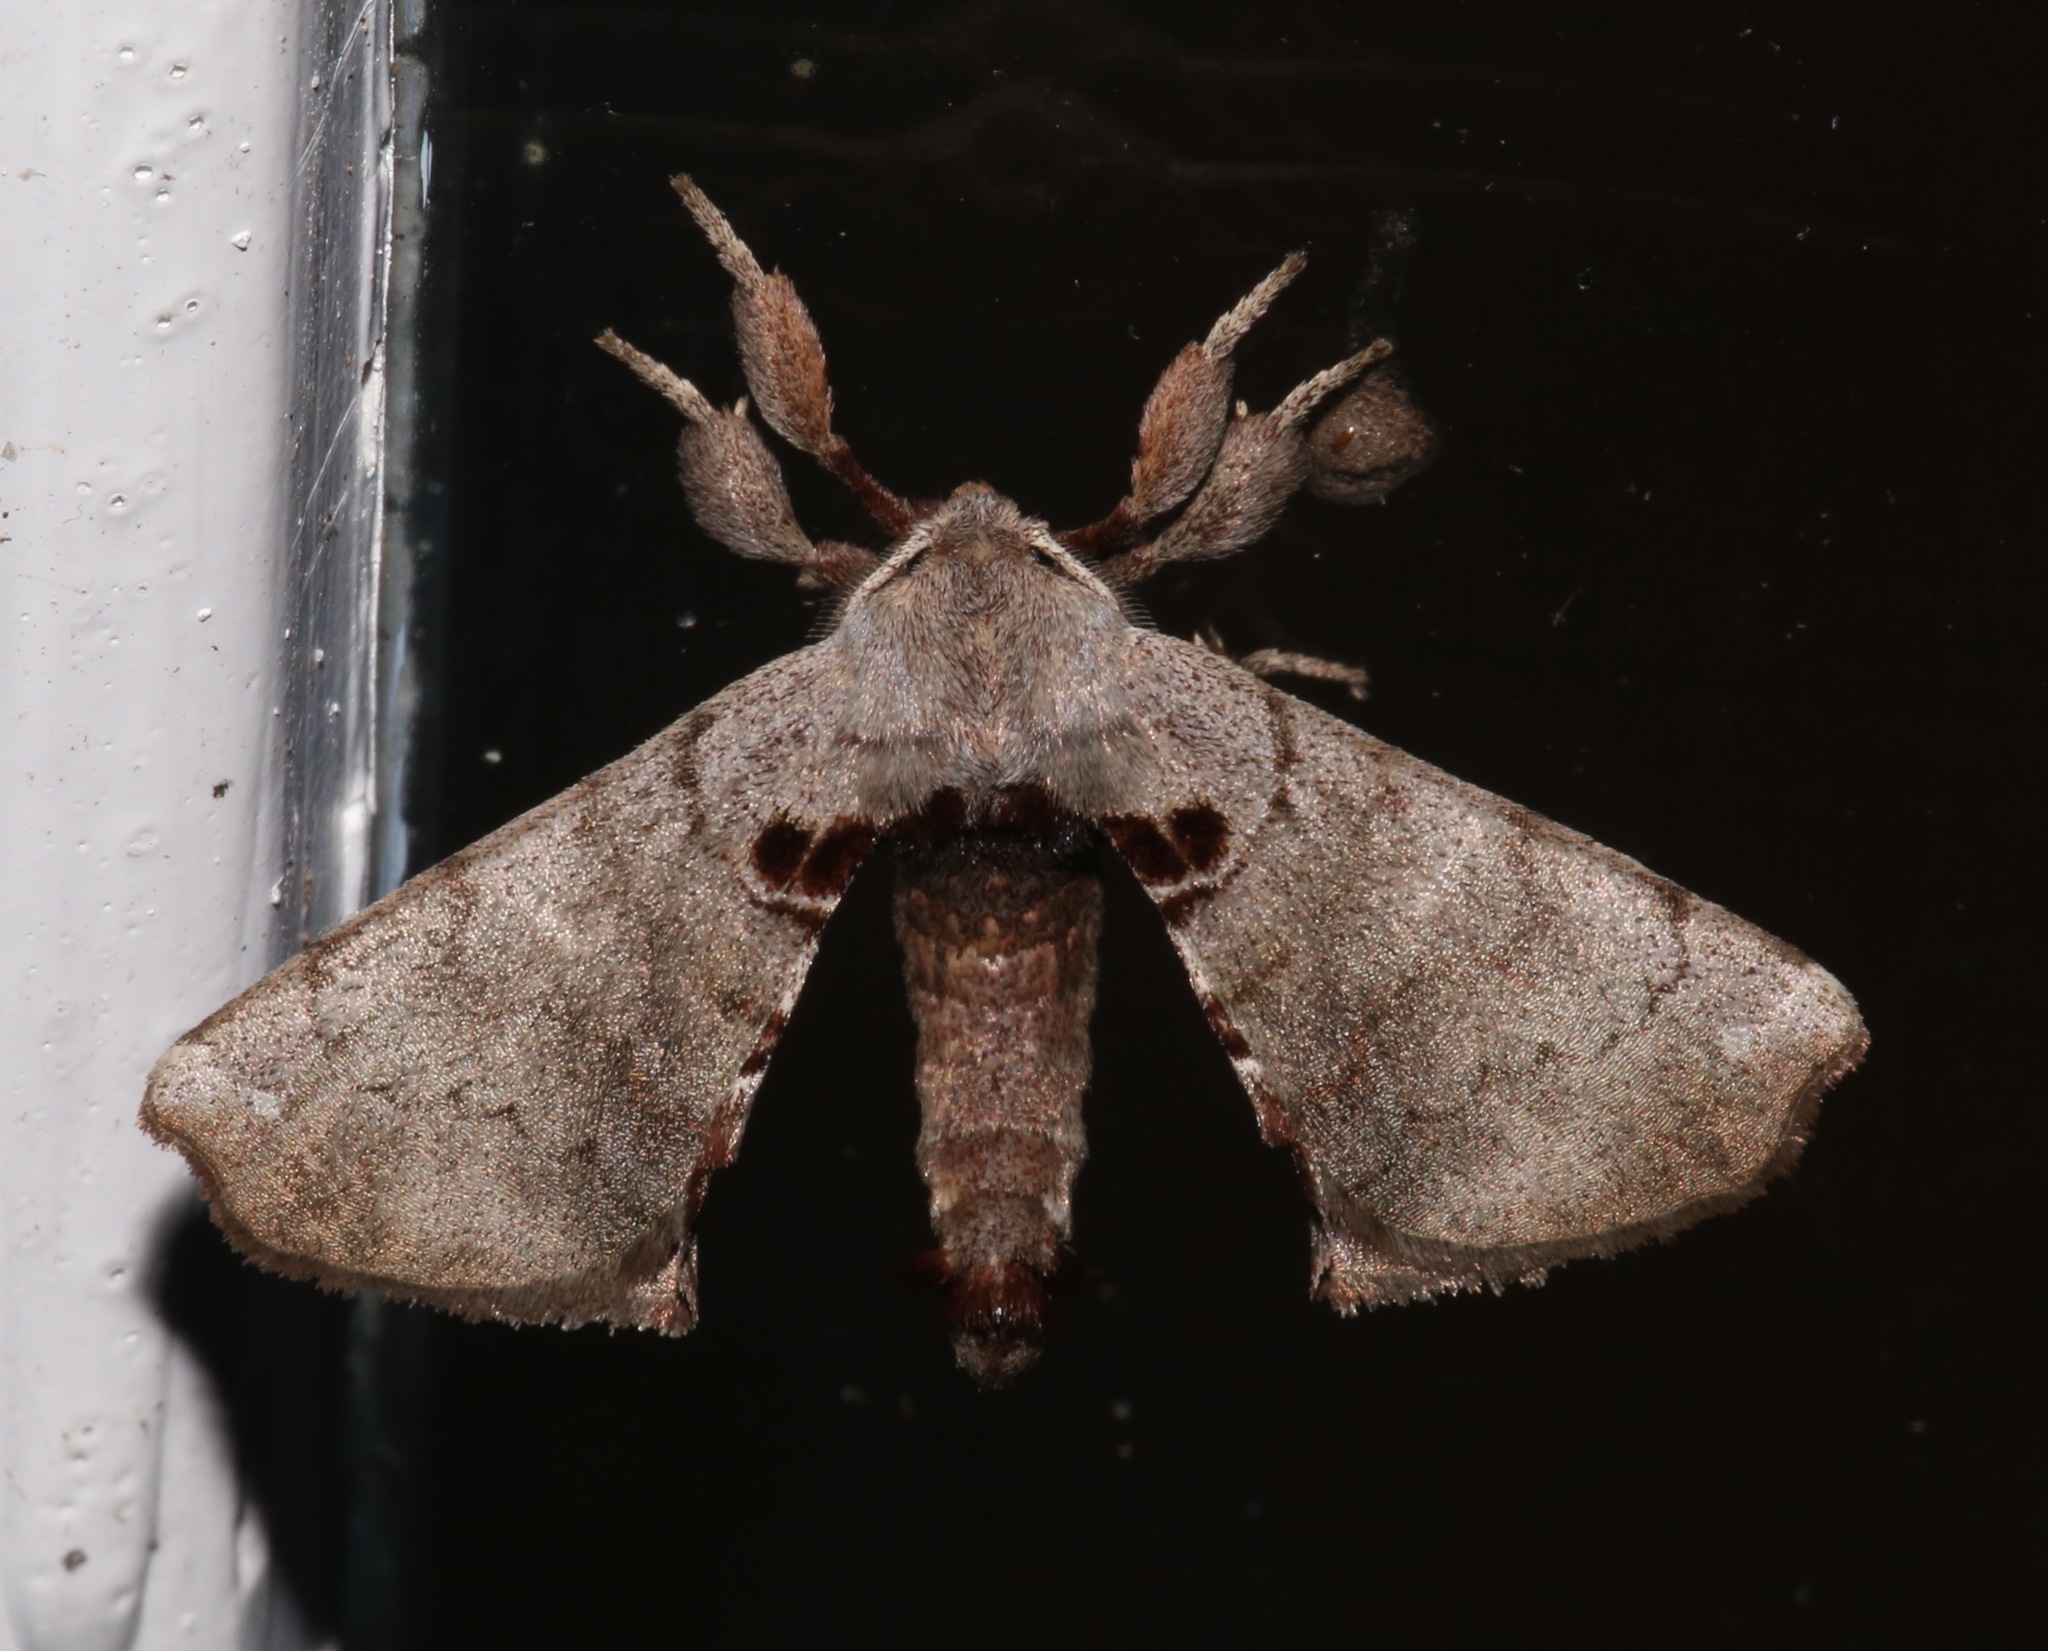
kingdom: Animalia
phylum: Arthropoda
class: Insecta
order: Lepidoptera
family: Apatelodidae
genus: Hygrochroa
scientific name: Hygrochroa Apatelodes torrefacta
